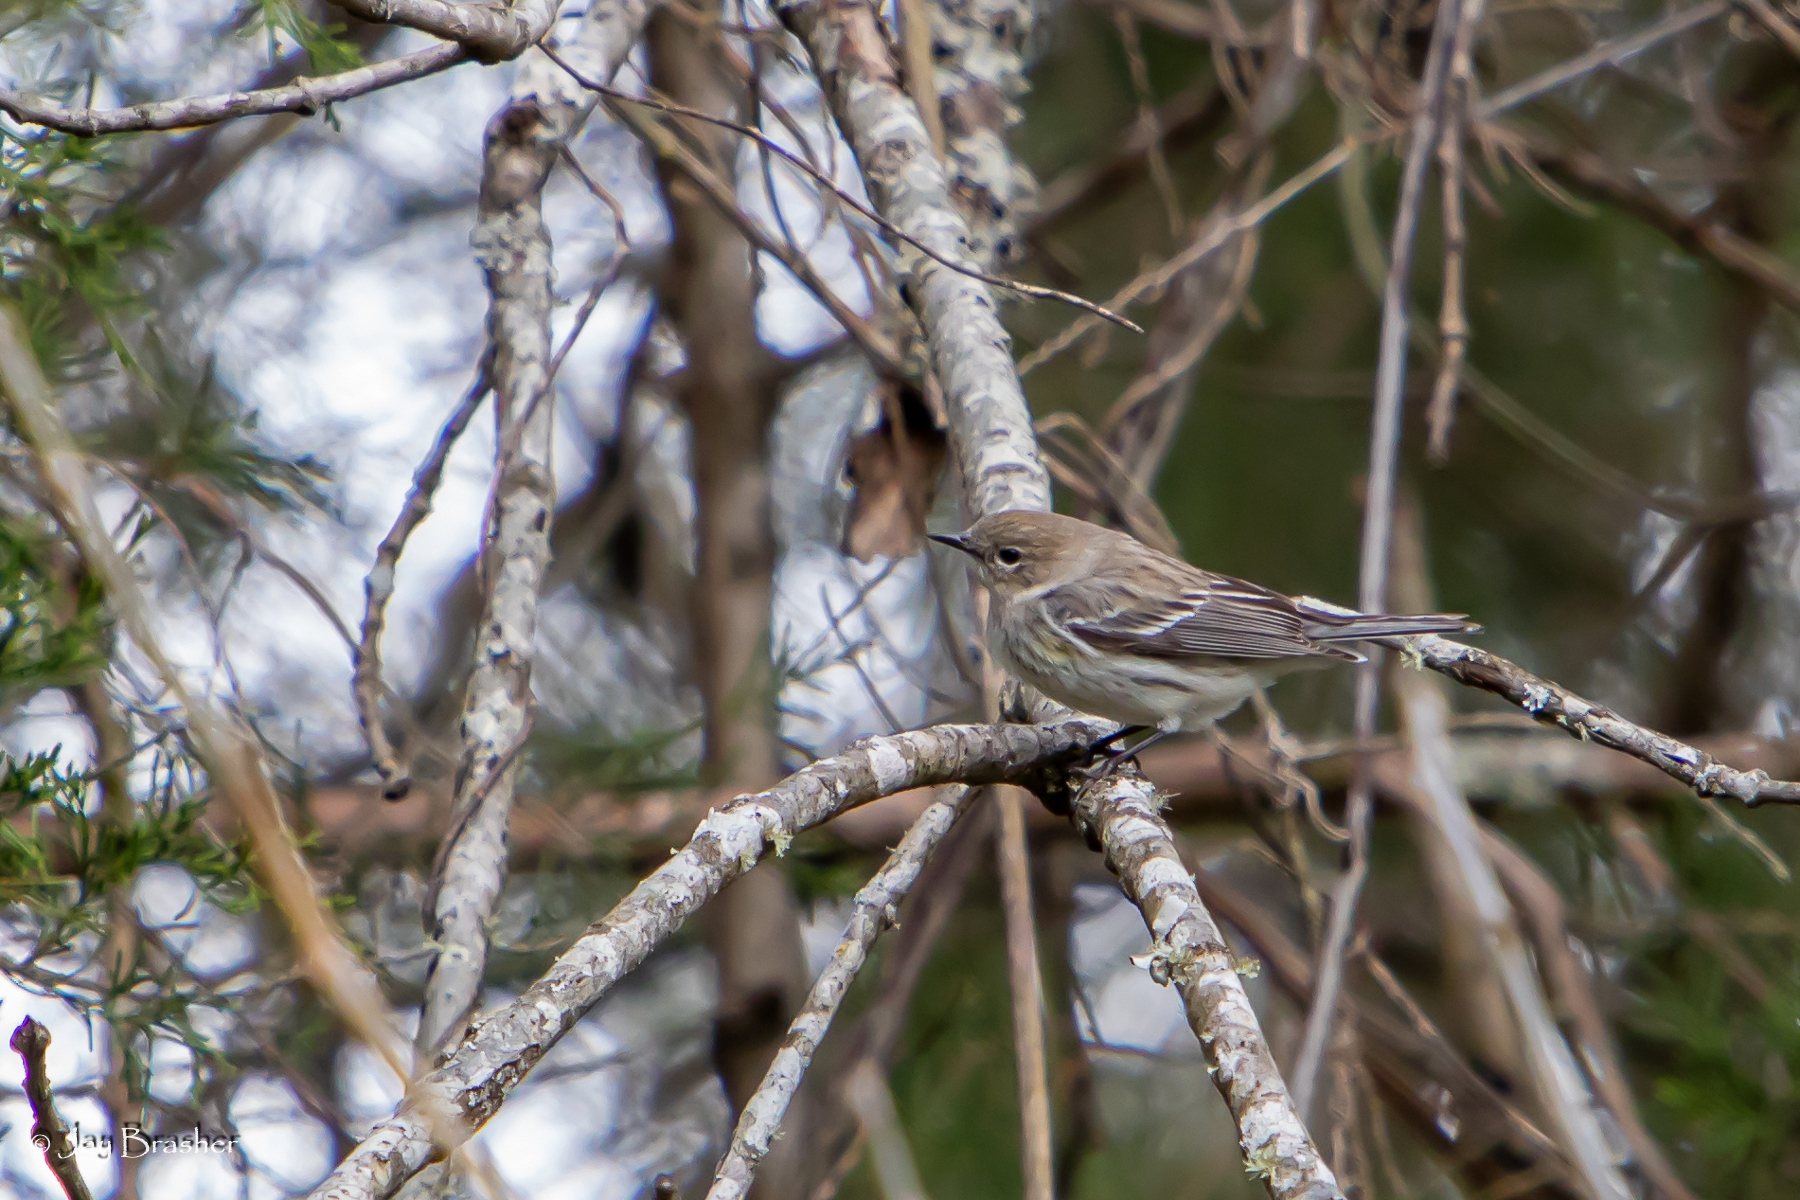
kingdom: Animalia
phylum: Chordata
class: Aves
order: Passeriformes
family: Parulidae
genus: Setophaga
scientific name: Setophaga coronata
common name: Myrtle warbler
